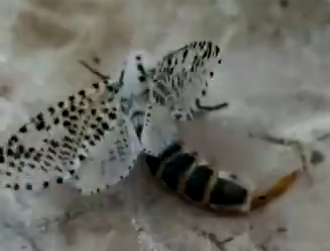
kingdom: Animalia
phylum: Arthropoda
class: Insecta
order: Lepidoptera
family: Cossidae
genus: Zeuzera
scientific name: Zeuzera pyrina
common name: Leopard moth
